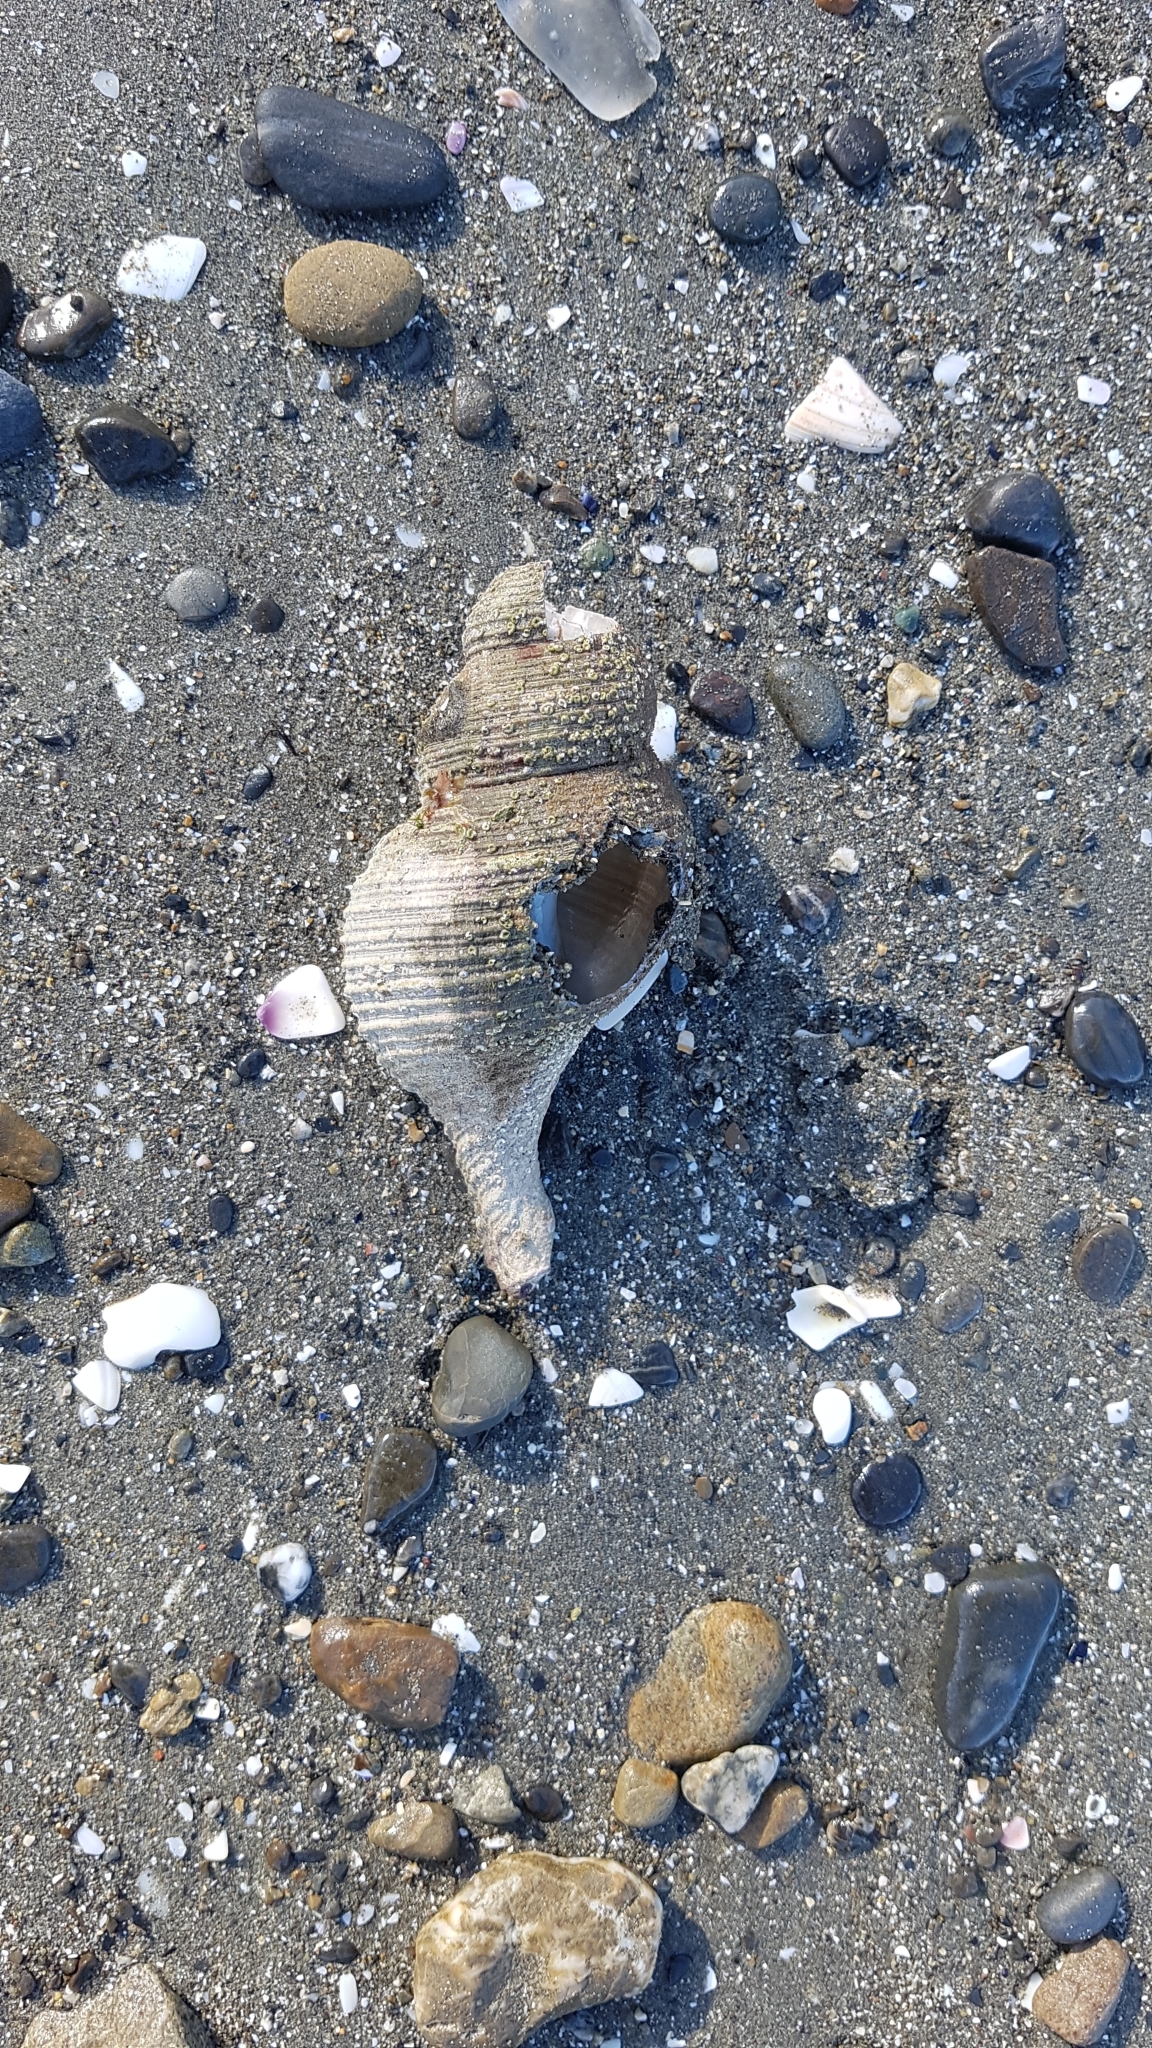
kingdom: Animalia
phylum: Mollusca
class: Gastropoda
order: Neogastropoda
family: Austrosiphonidae
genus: Penion
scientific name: Penion sulcatus
